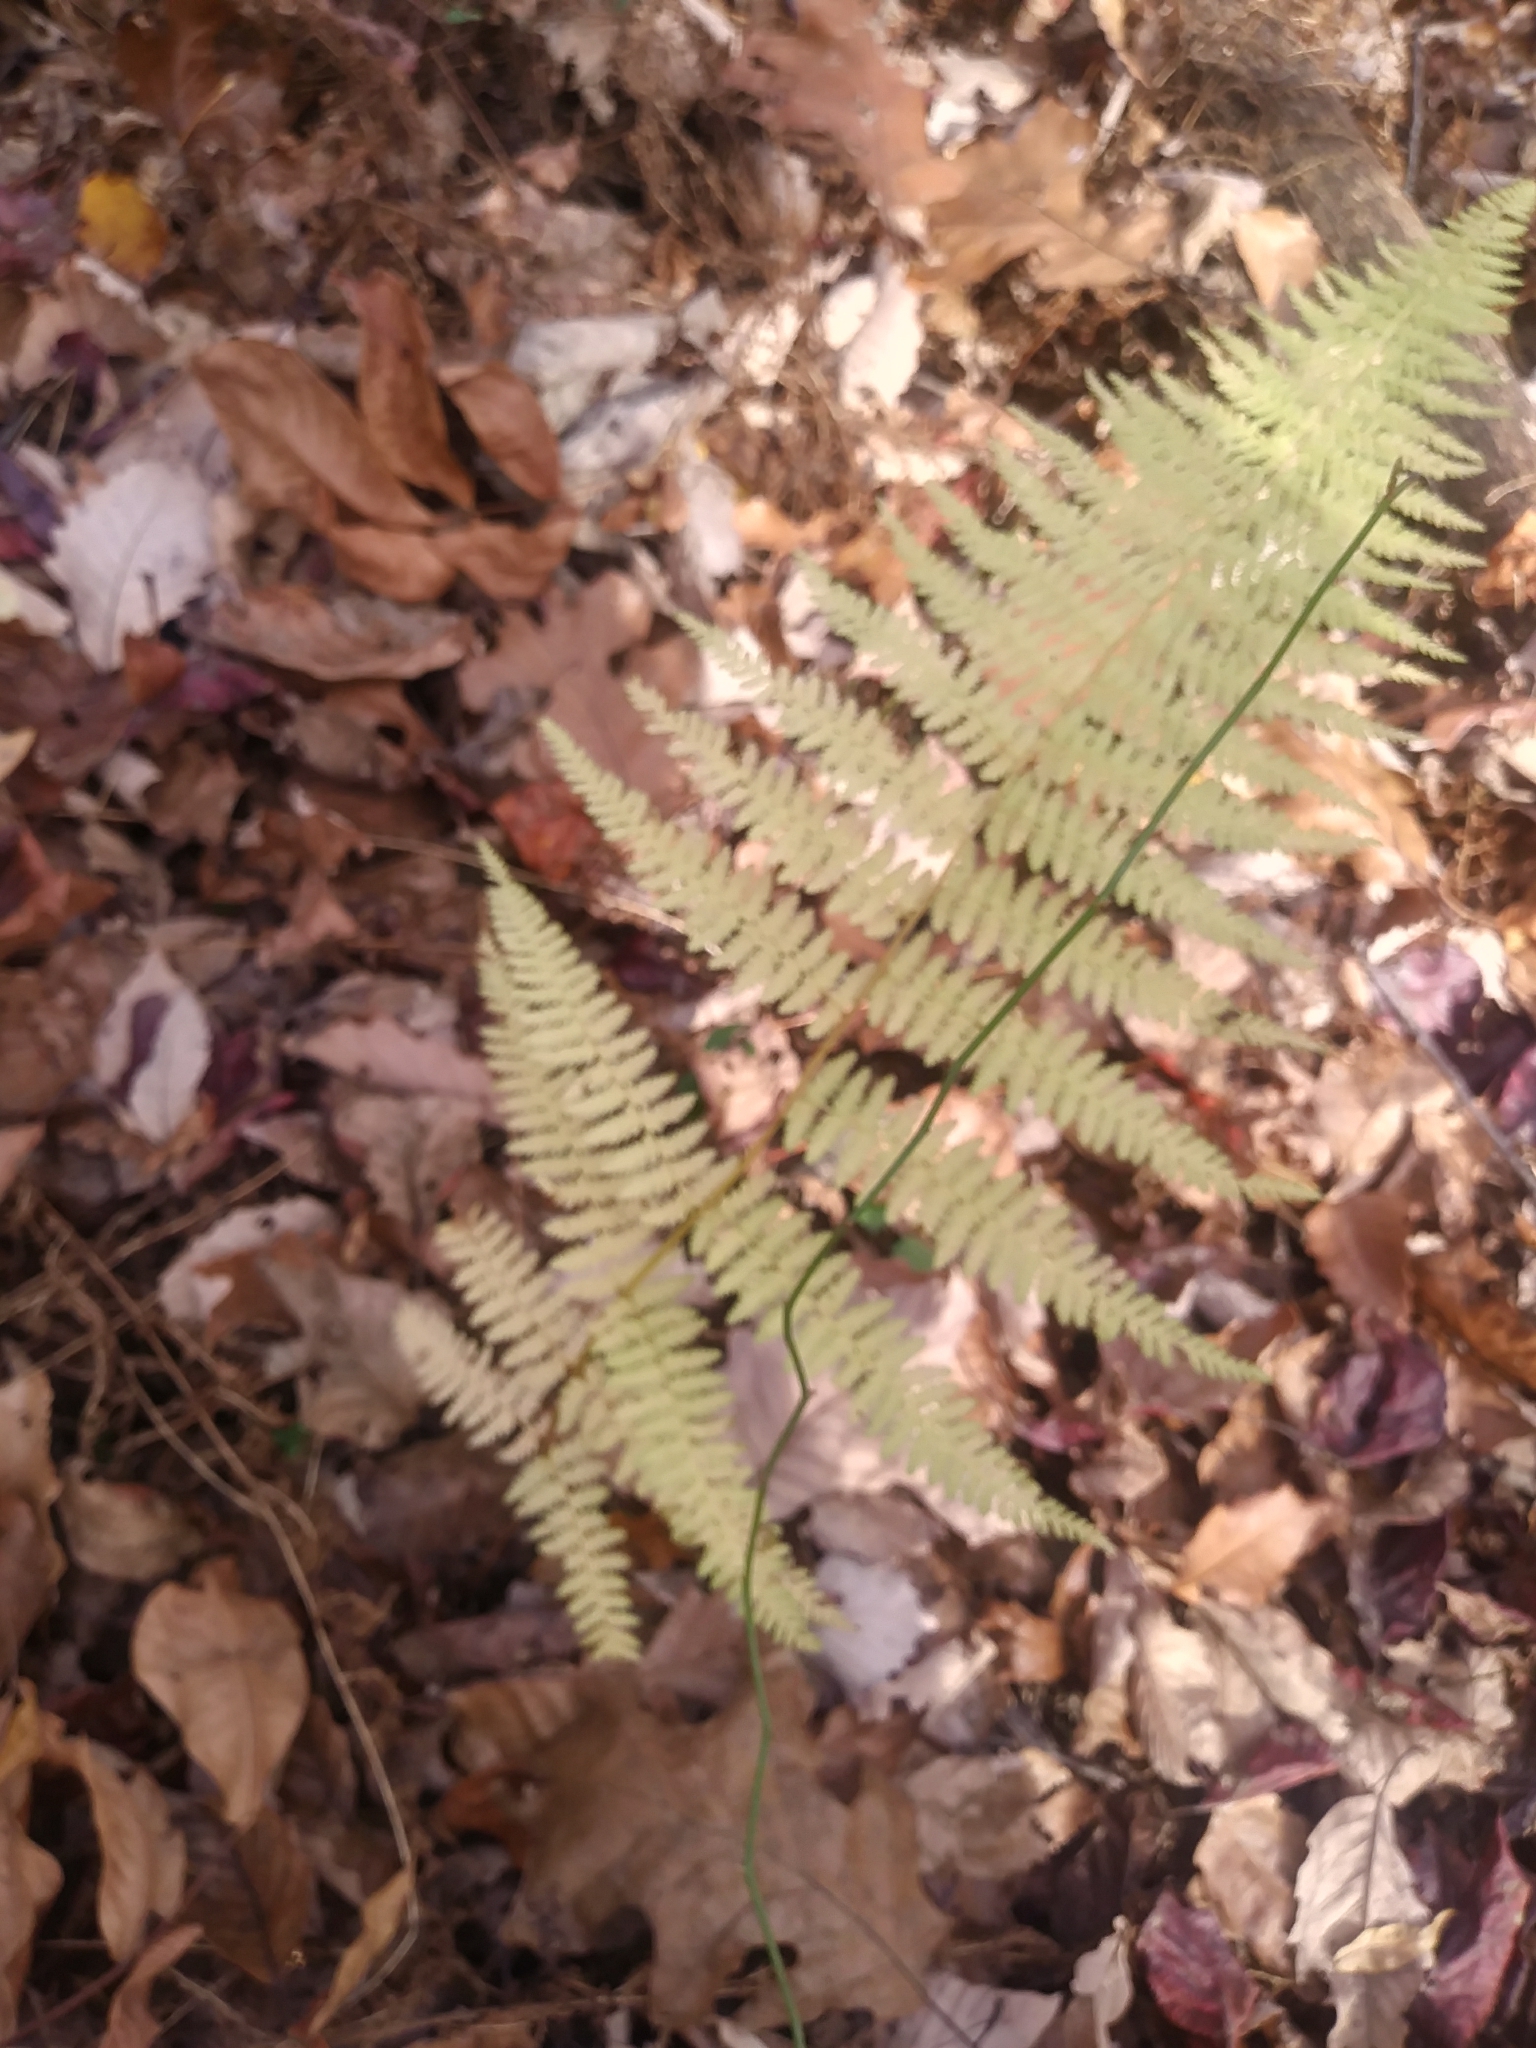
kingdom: Plantae
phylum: Tracheophyta
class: Polypodiopsida
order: Polypodiales
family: Dennstaedtiaceae
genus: Sitobolium
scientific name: Sitobolium punctilobum
